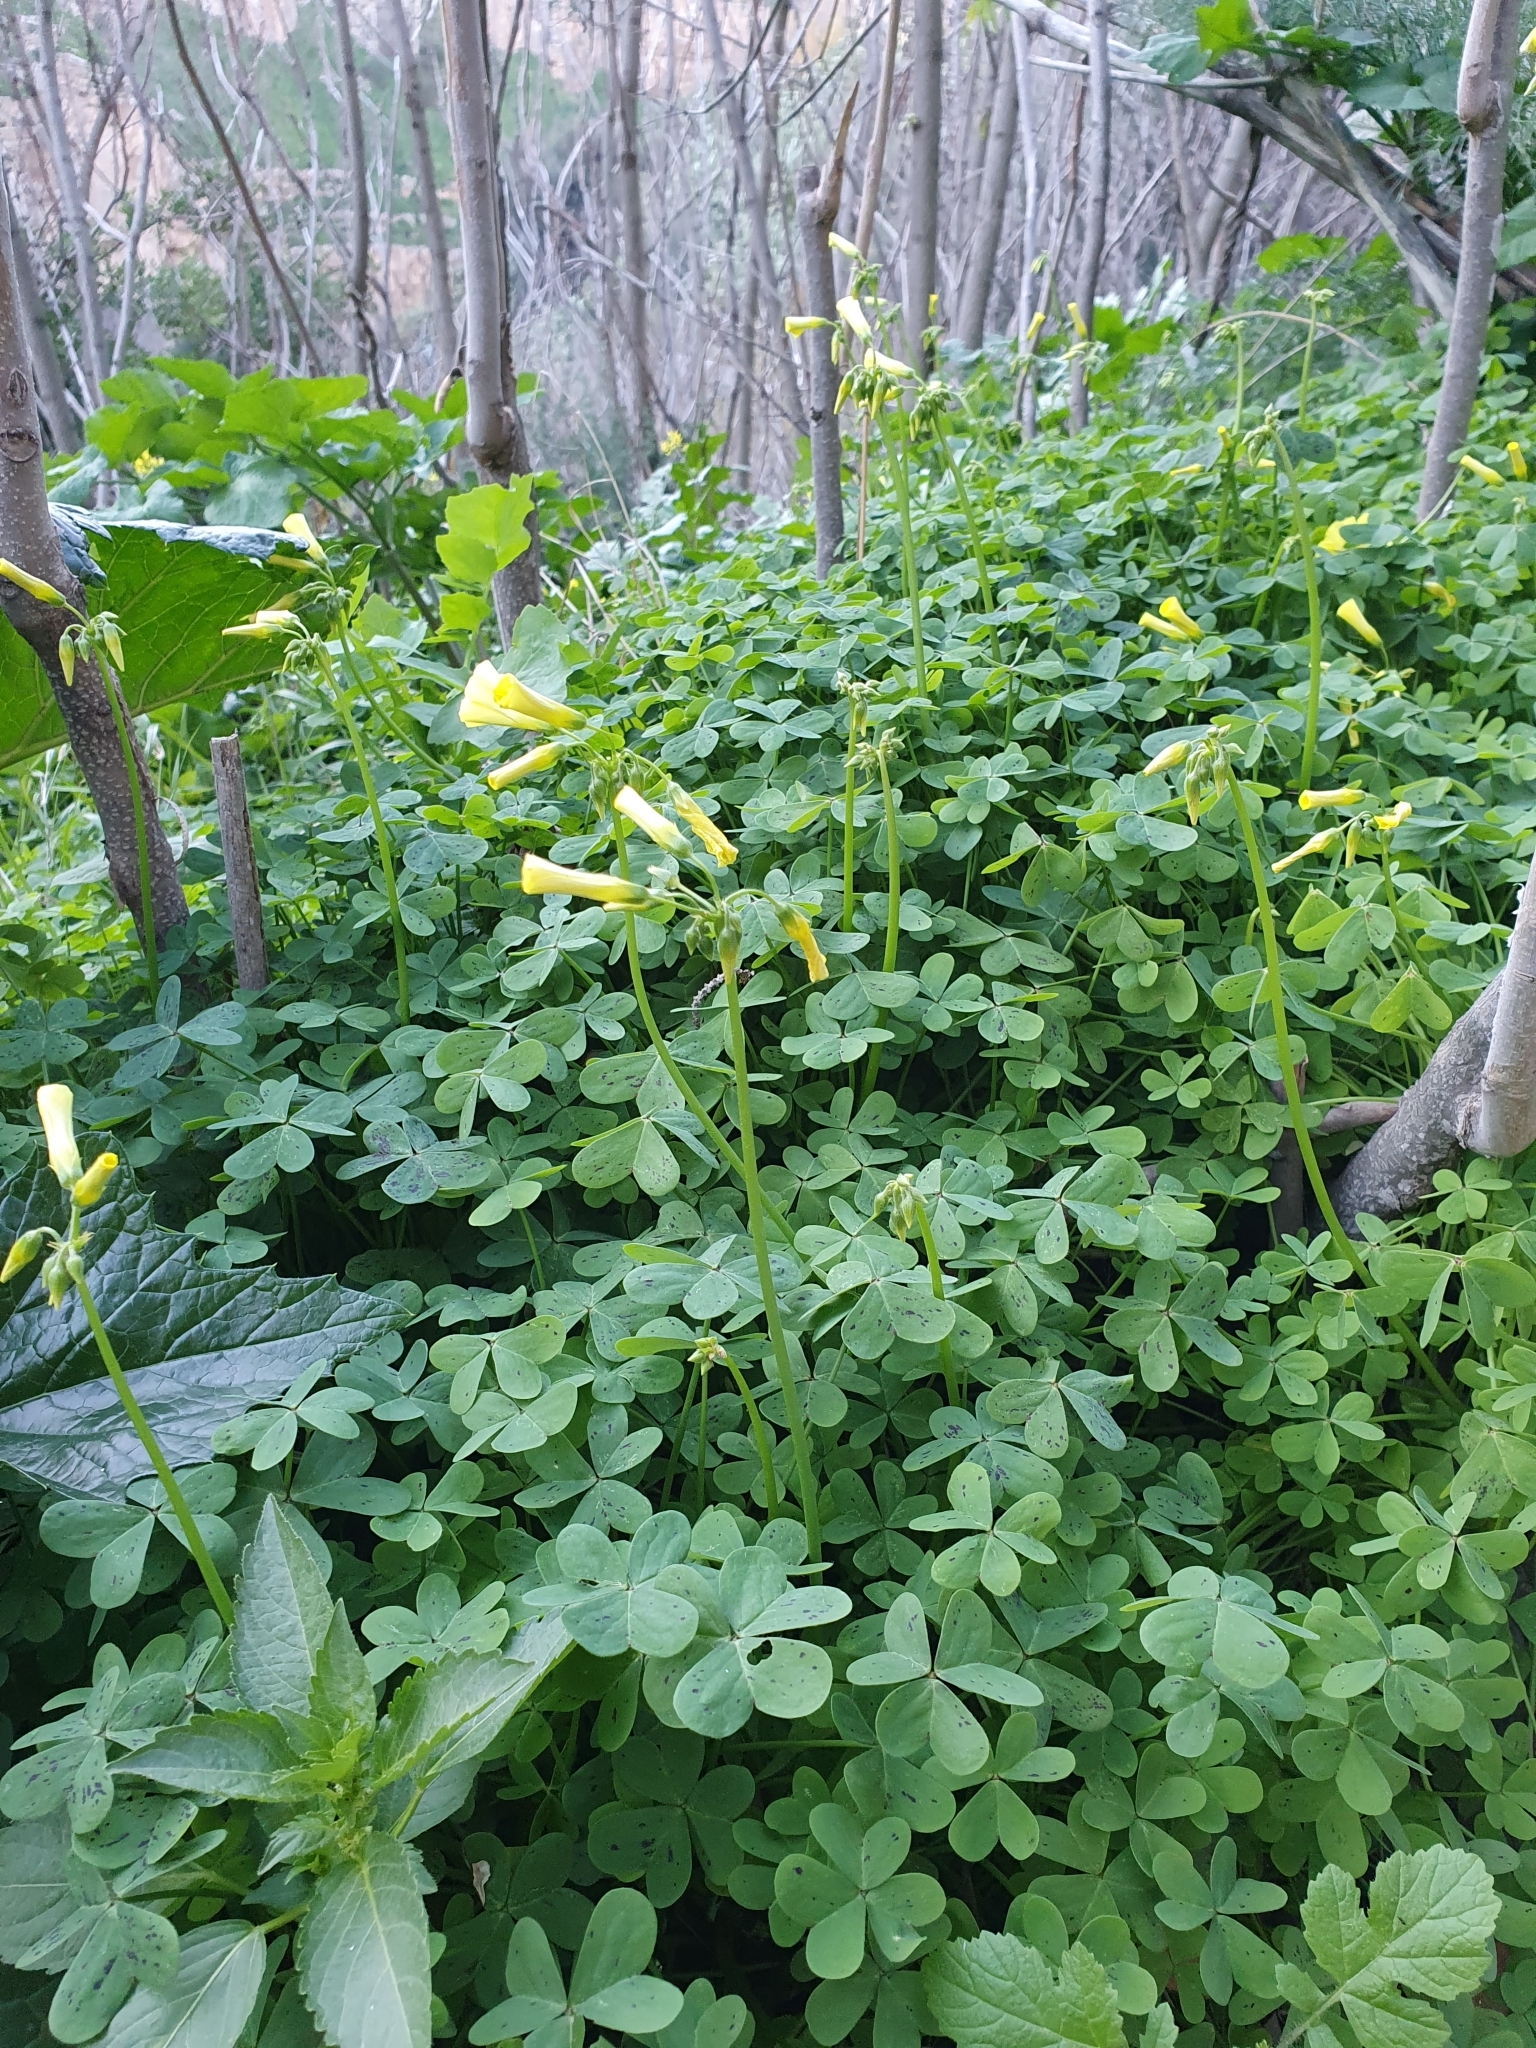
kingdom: Plantae
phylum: Tracheophyta
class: Magnoliopsida
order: Oxalidales
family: Oxalidaceae
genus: Oxalis
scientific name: Oxalis pes-caprae
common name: Bermuda-buttercup
